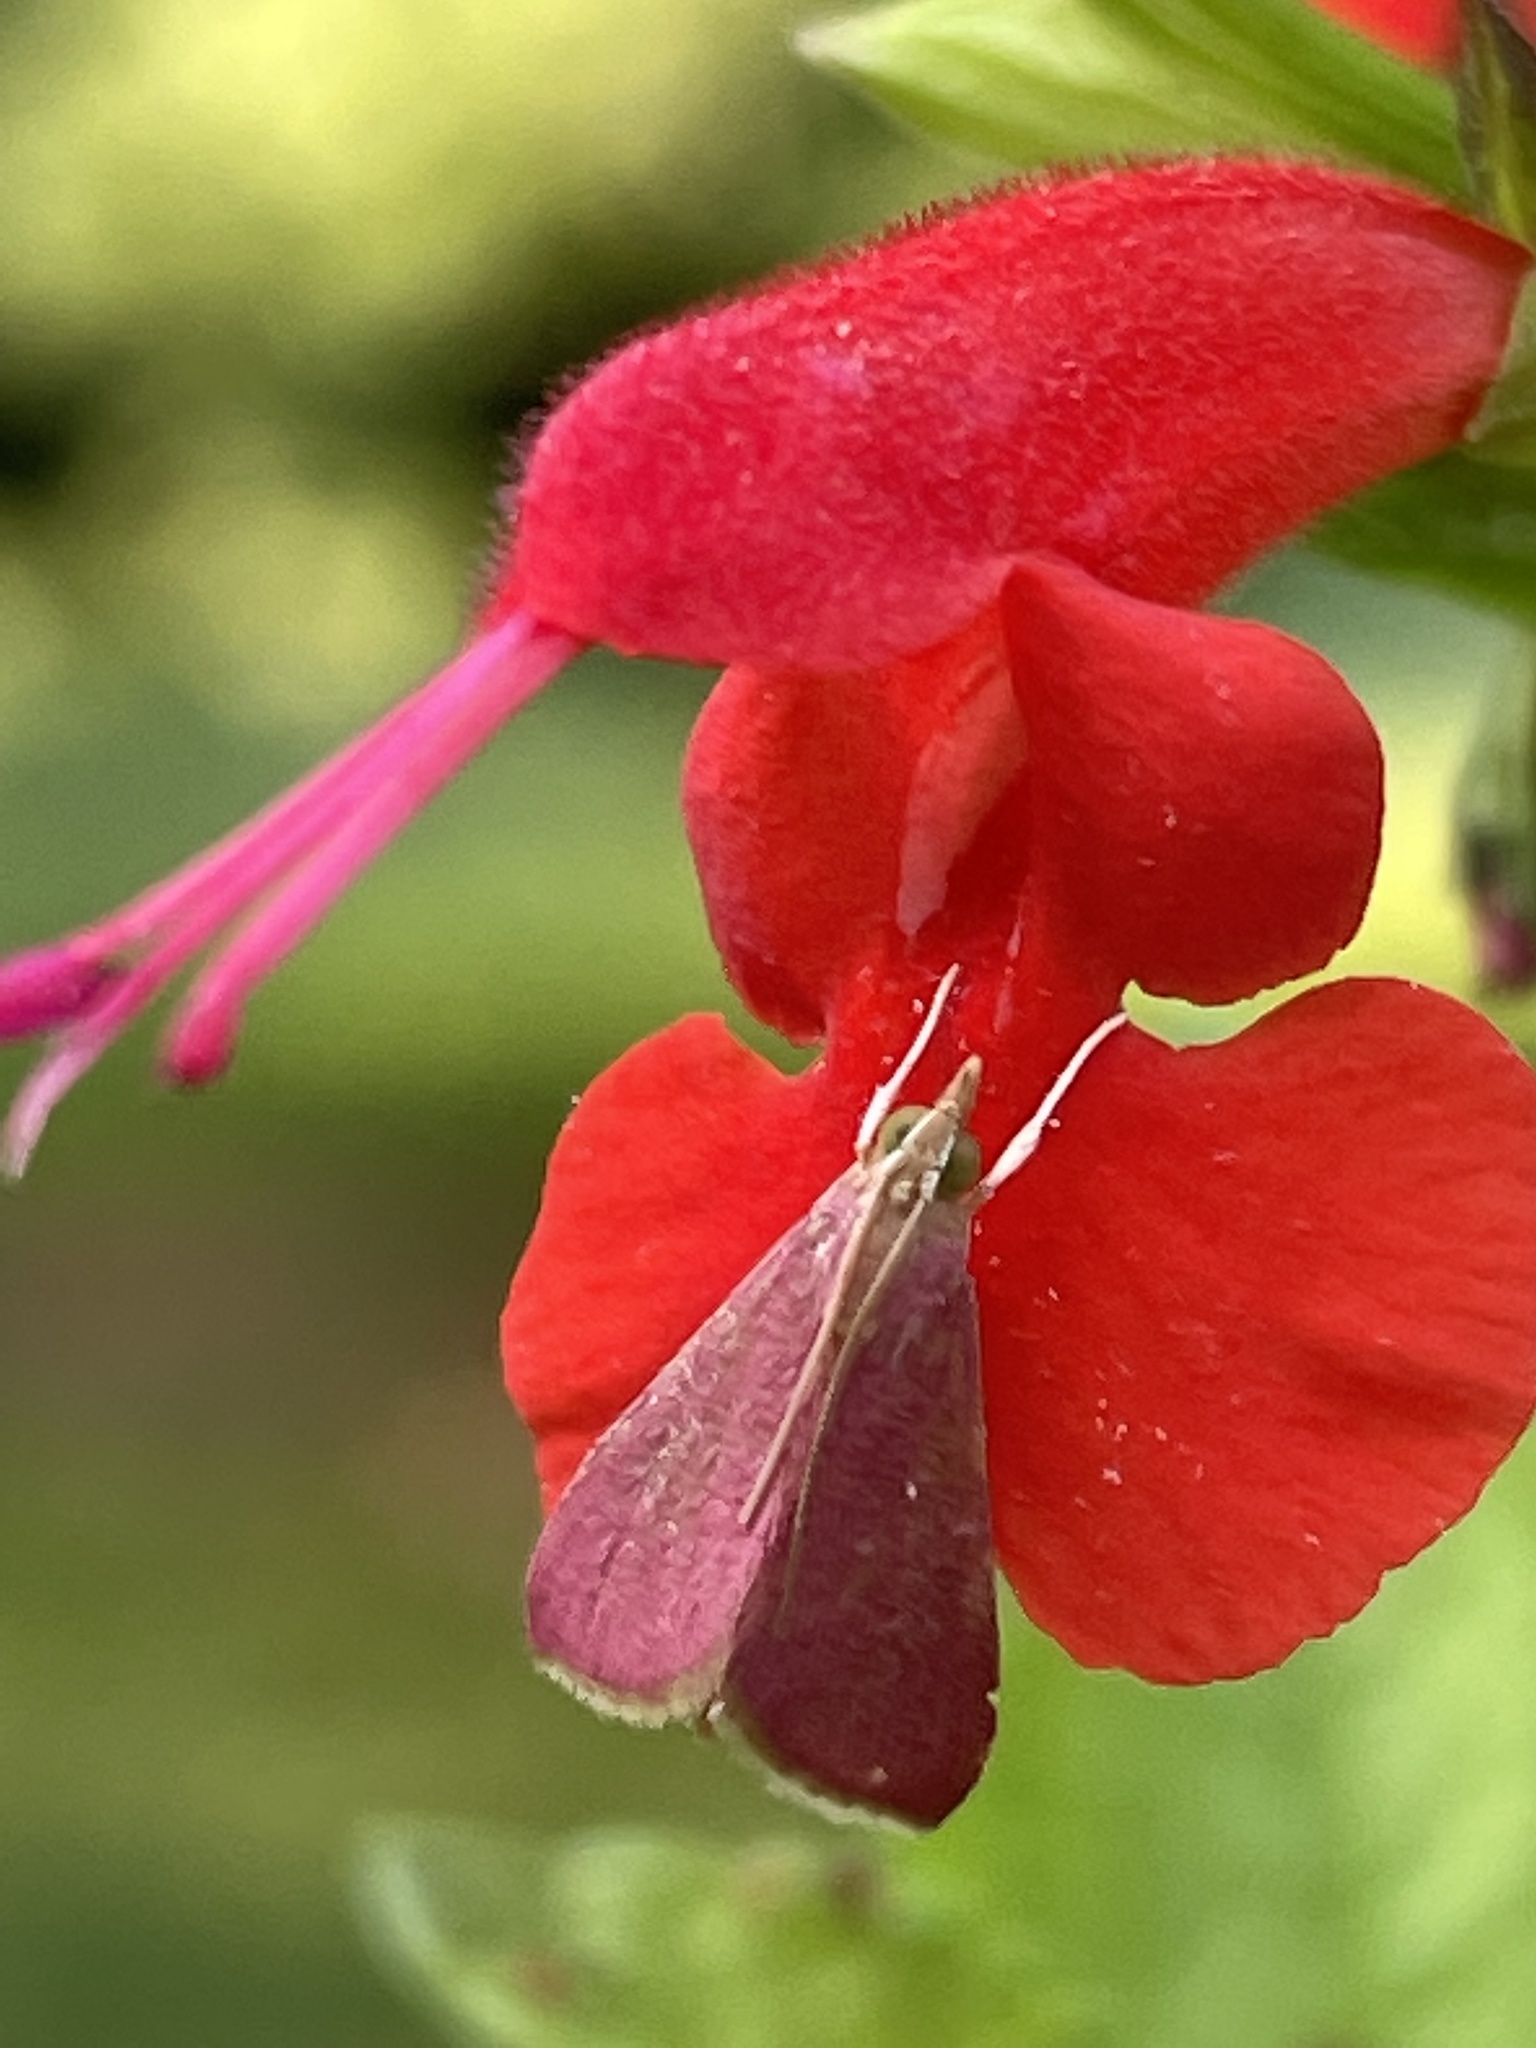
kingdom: Animalia
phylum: Arthropoda
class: Insecta
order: Lepidoptera
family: Crambidae
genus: Pyrausta
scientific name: Pyrausta inornatalis
